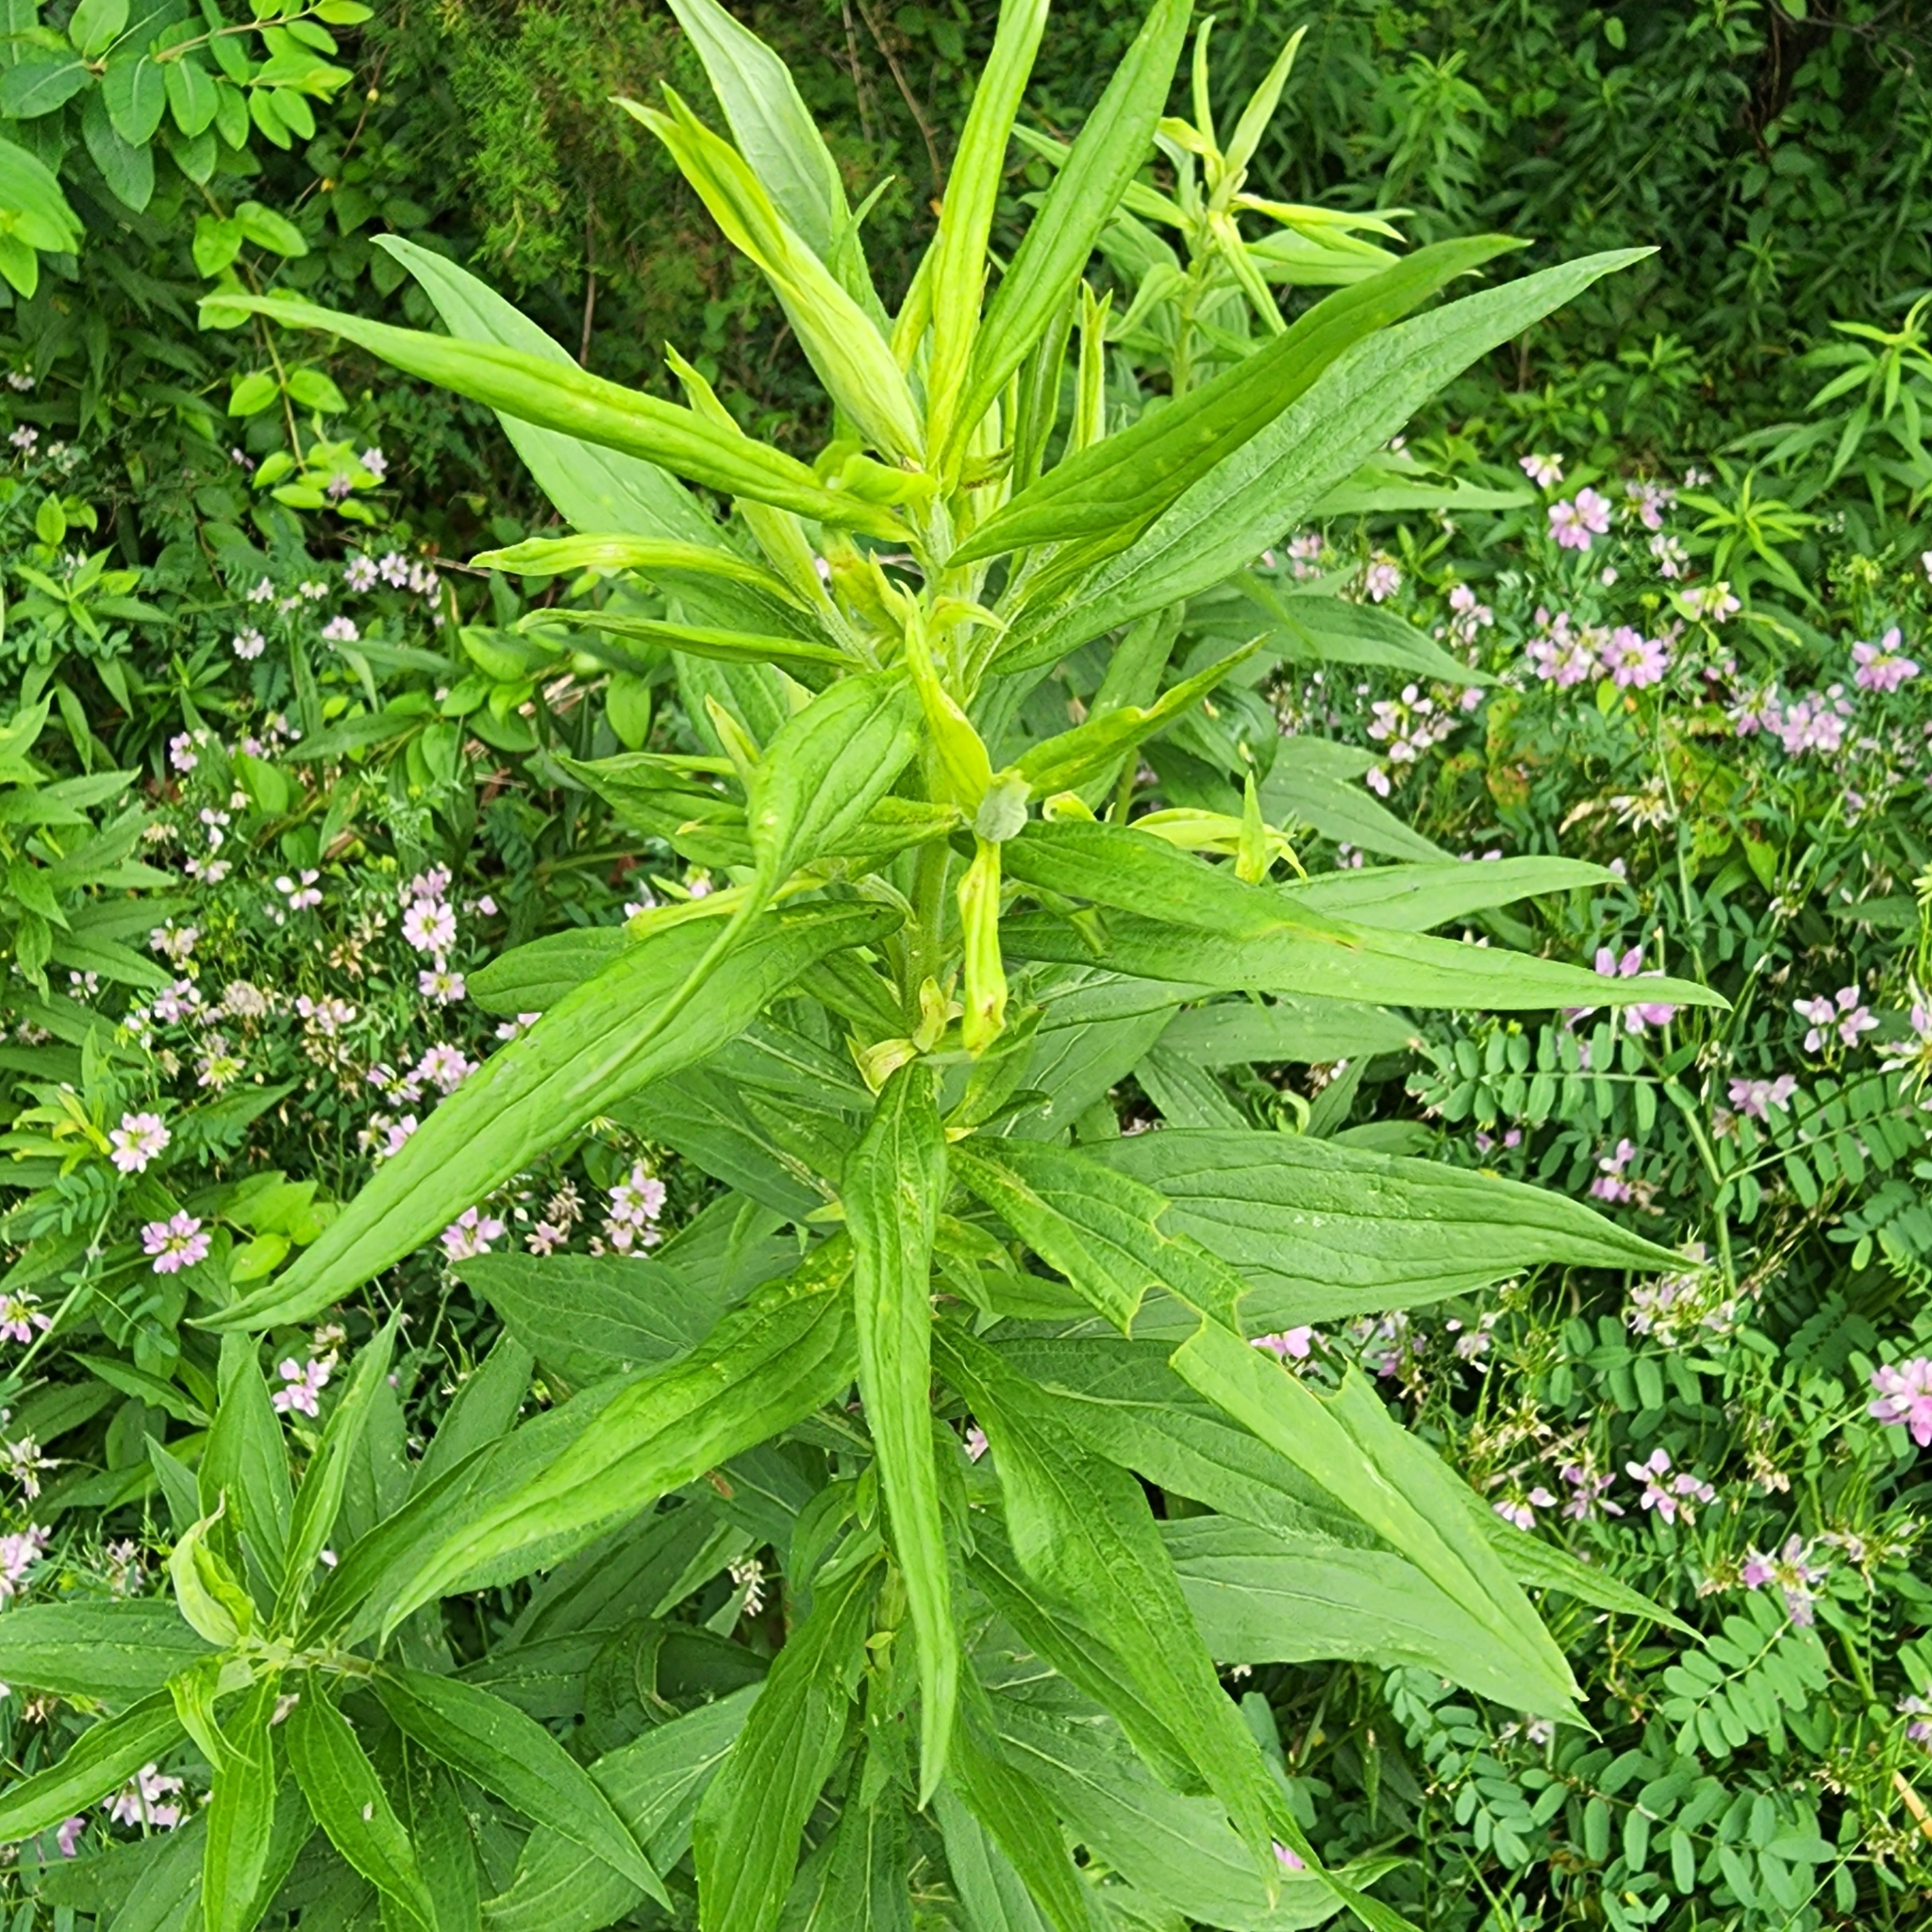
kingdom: Plantae
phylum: Tracheophyta
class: Magnoliopsida
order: Asterales
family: Asteraceae
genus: Solidago
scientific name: Solidago altissima
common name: Late goldenrod
